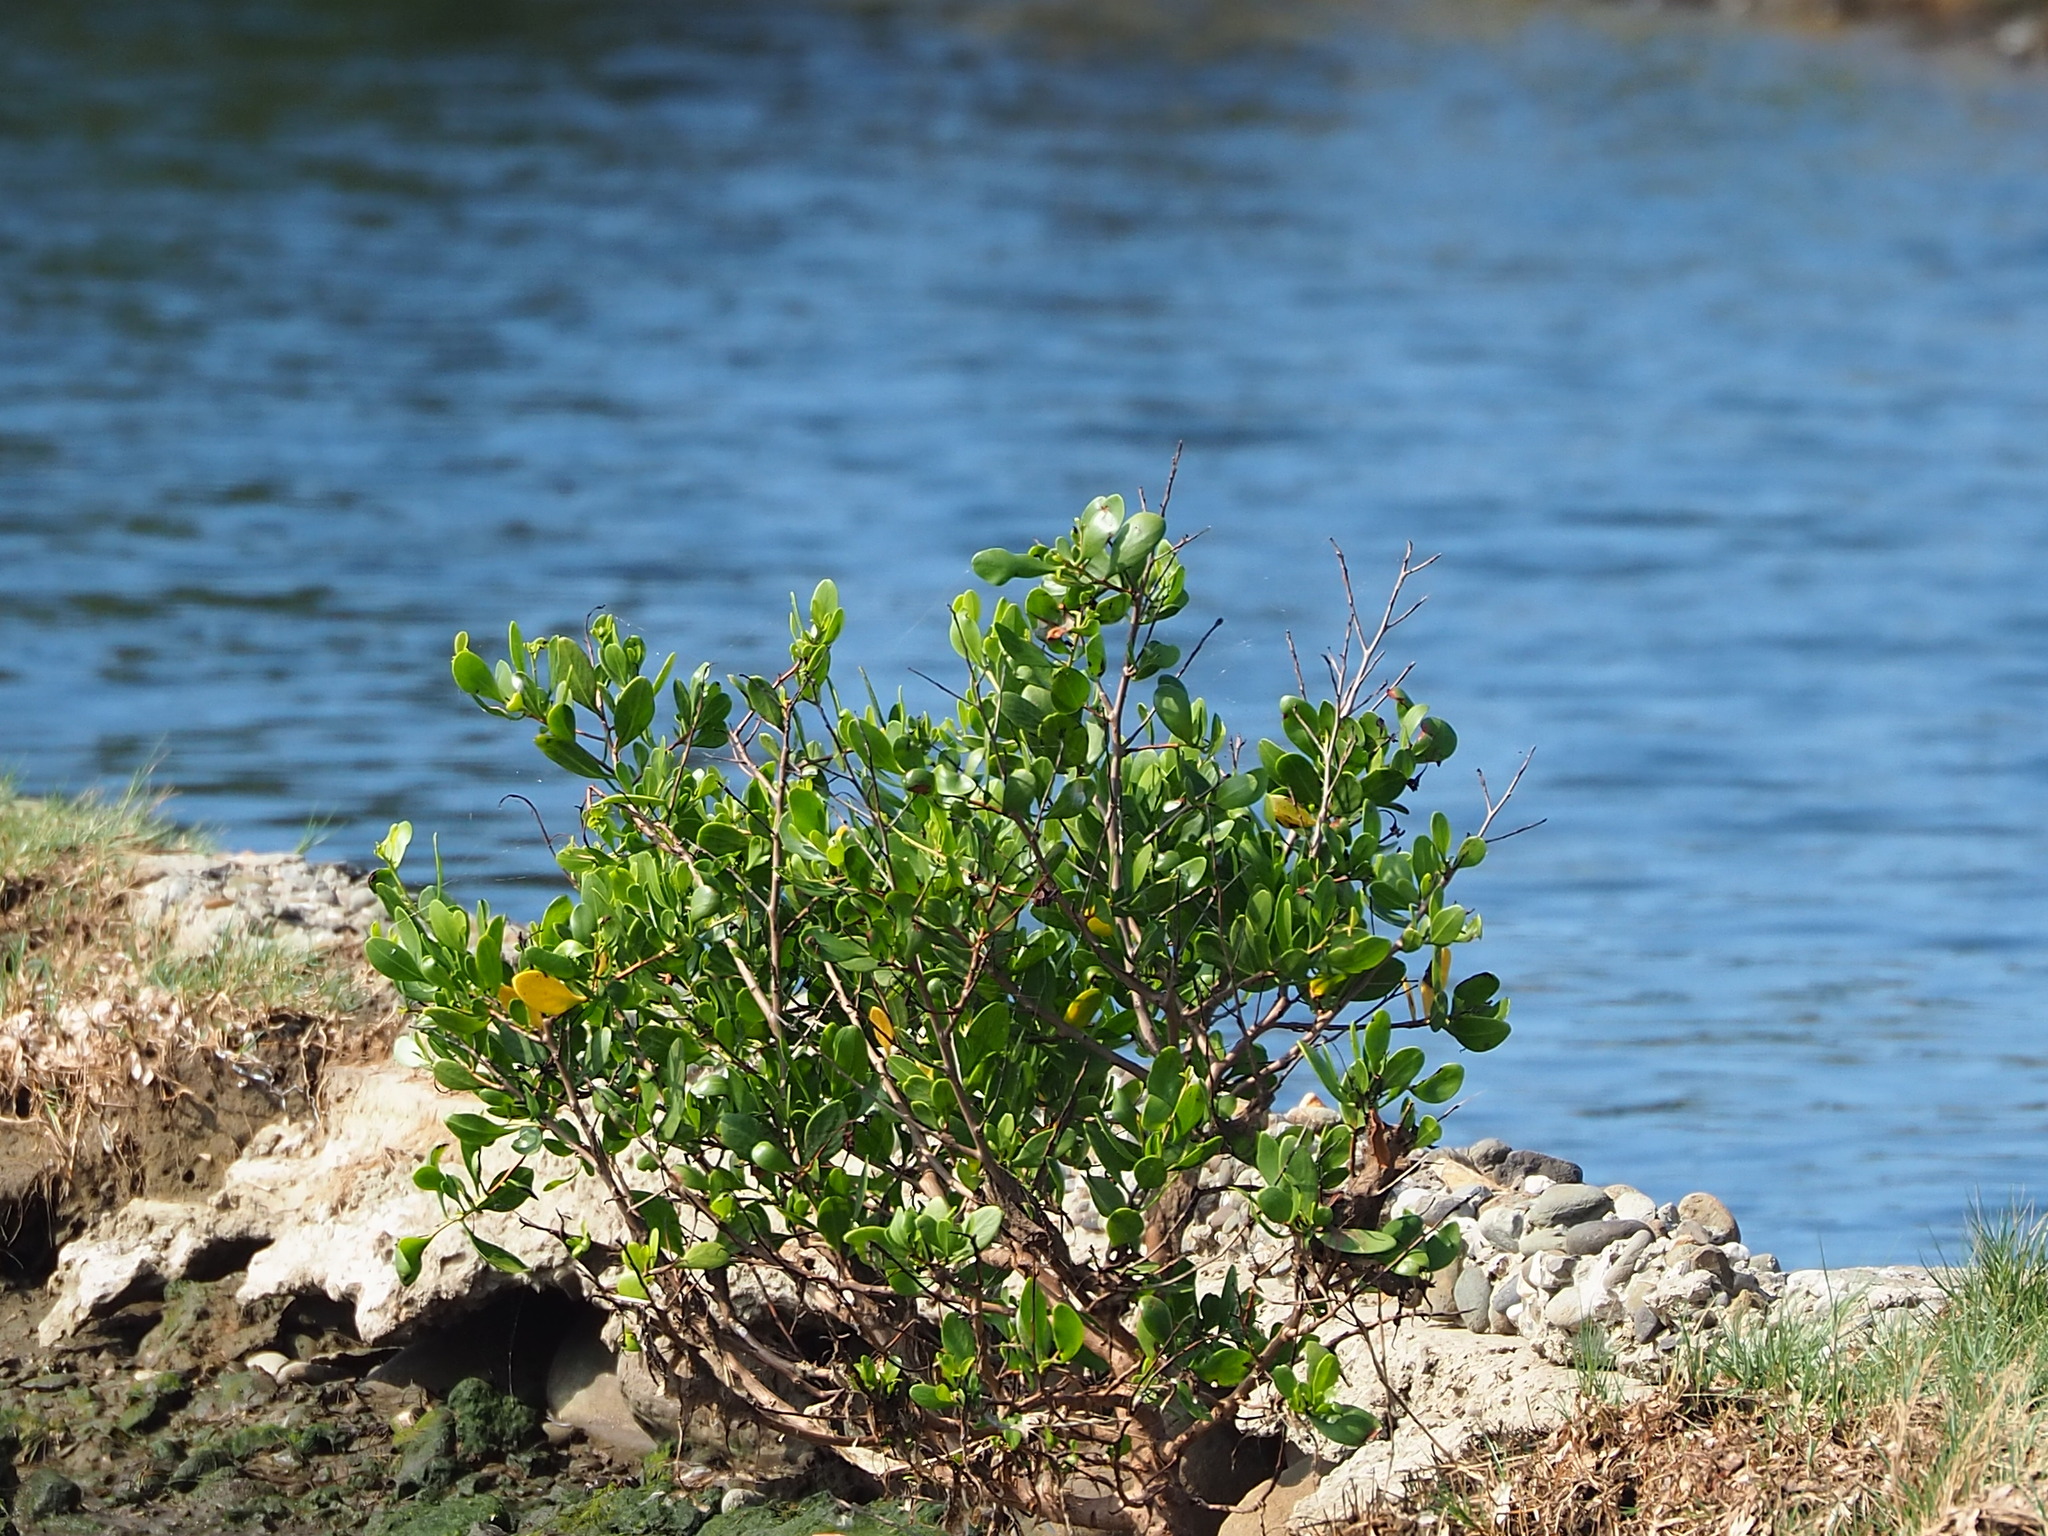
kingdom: Plantae
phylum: Tracheophyta
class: Magnoliopsida
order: Myrtales
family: Combretaceae
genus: Lumnitzera
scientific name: Lumnitzera racemosa
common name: White-flowered black mangrove
